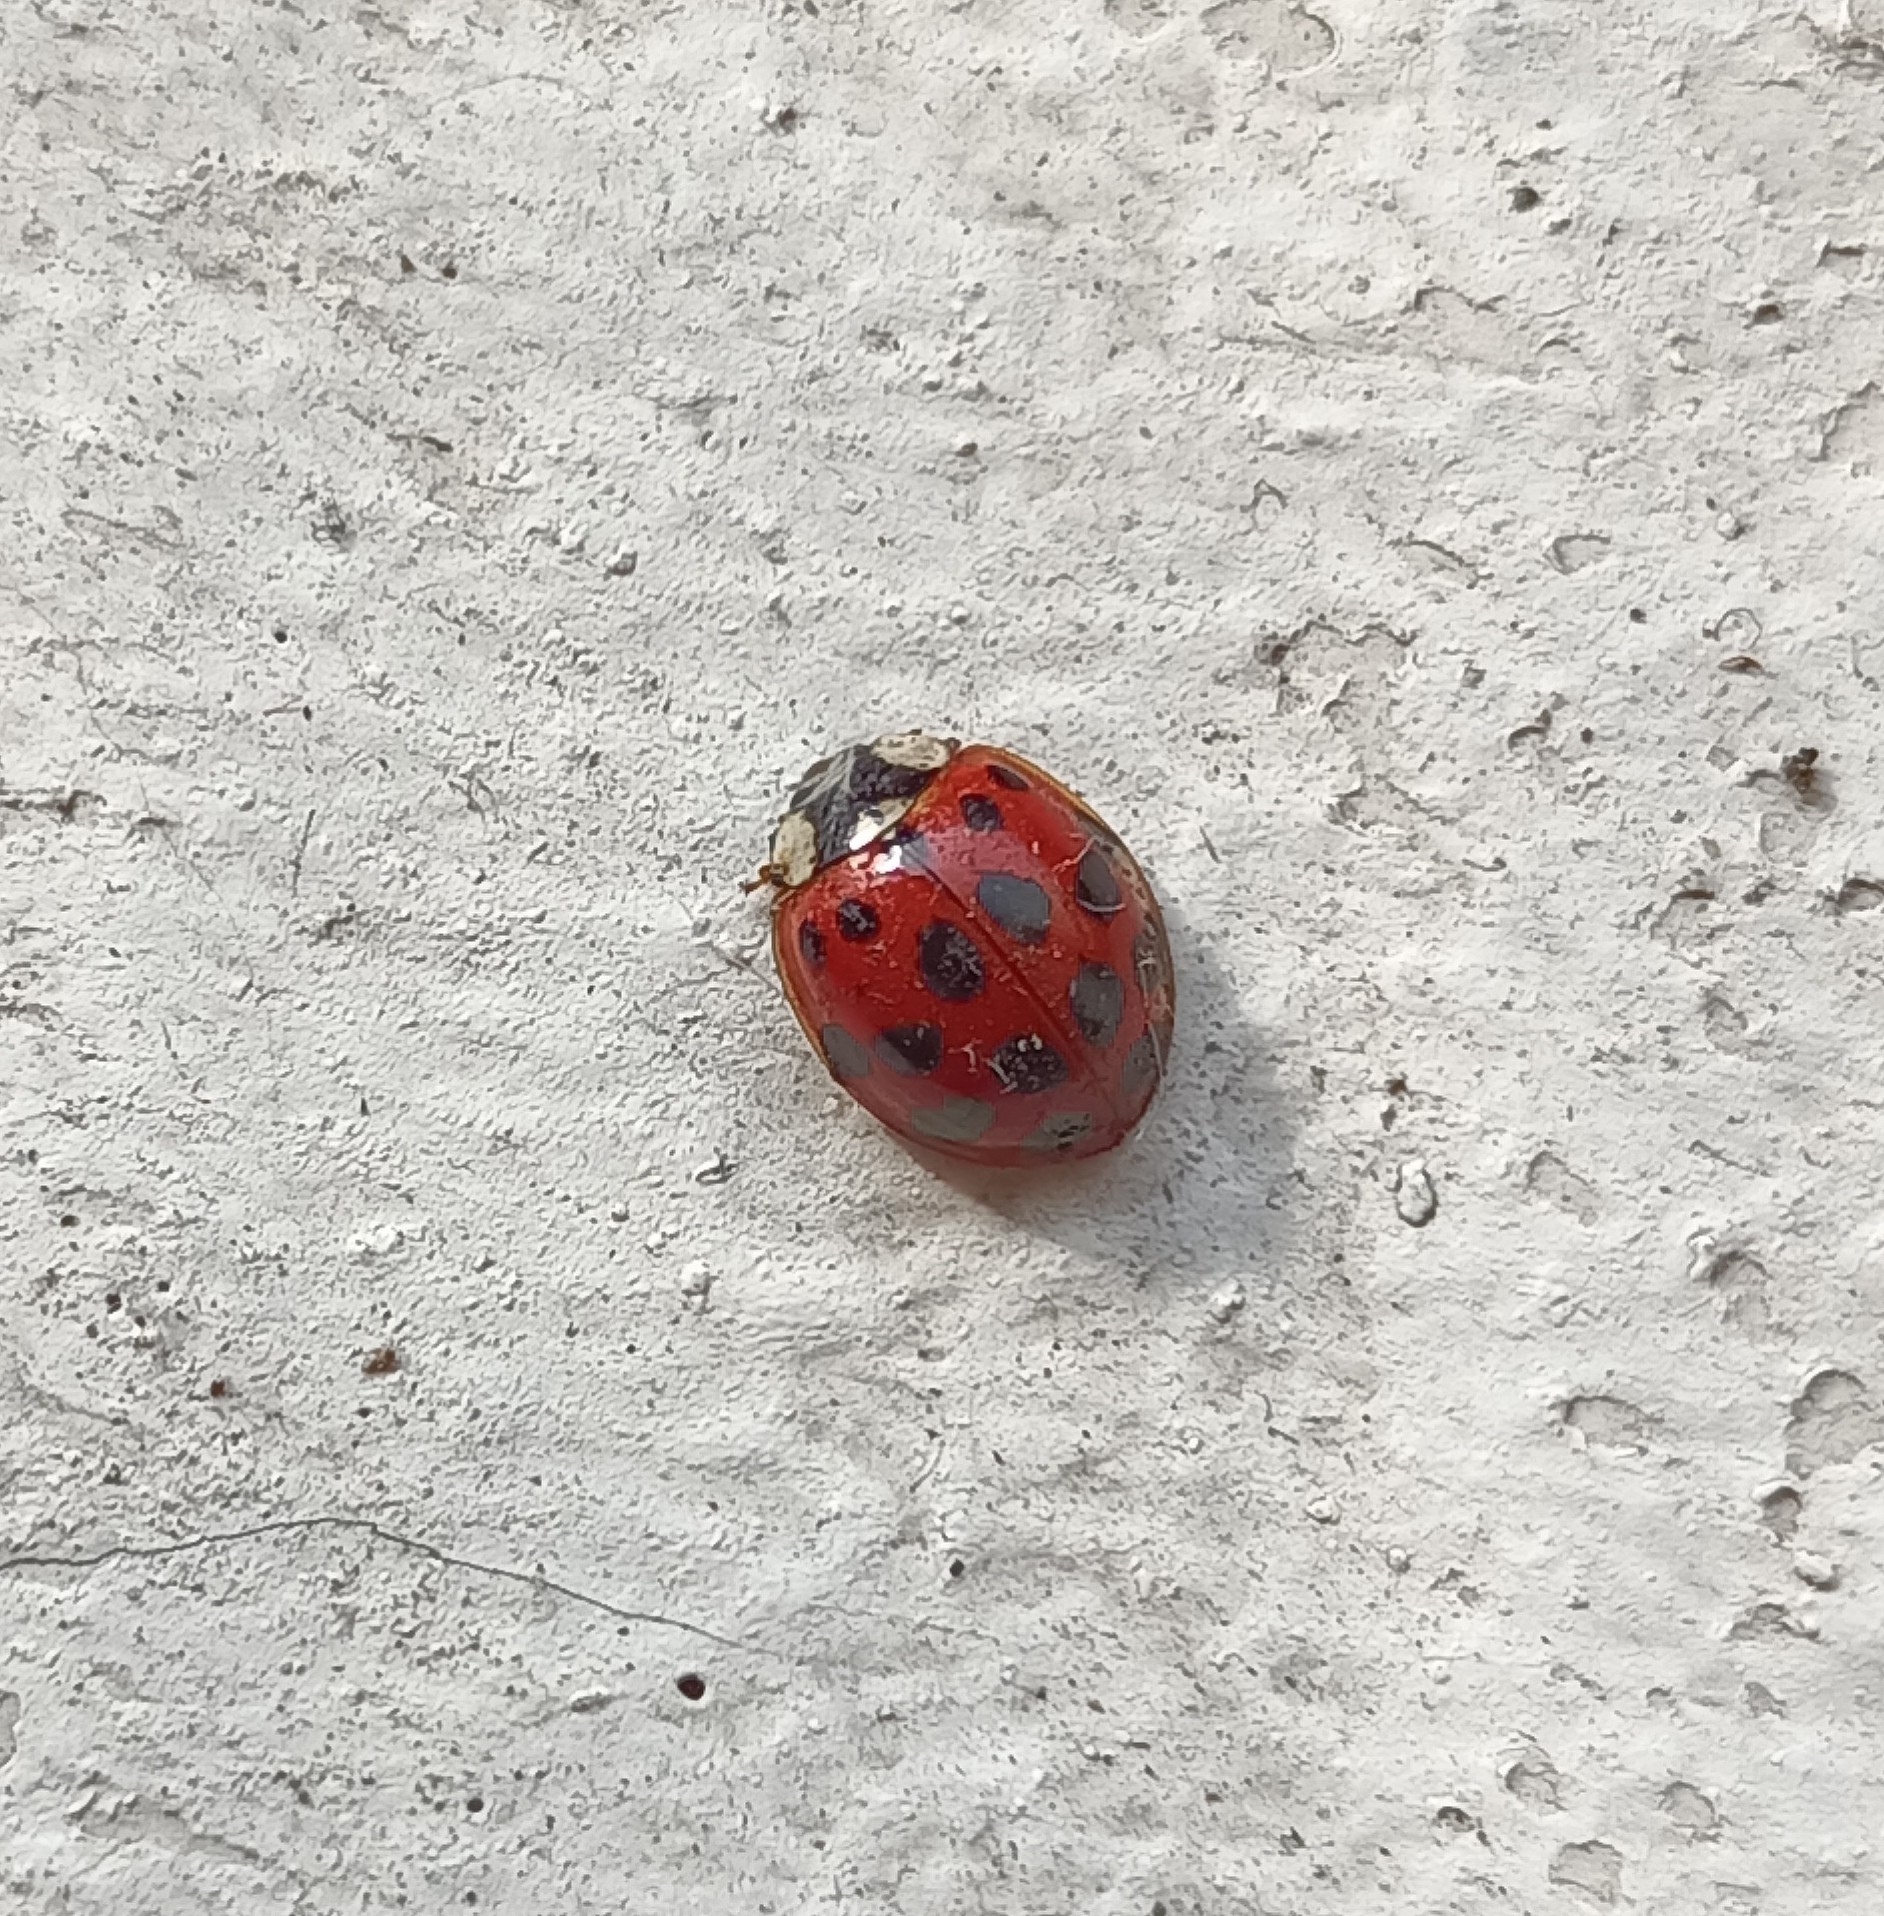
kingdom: Animalia
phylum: Arthropoda
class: Insecta
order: Coleoptera
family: Coccinellidae
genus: Harmonia
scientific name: Harmonia axyridis
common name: Harlequin ladybird
